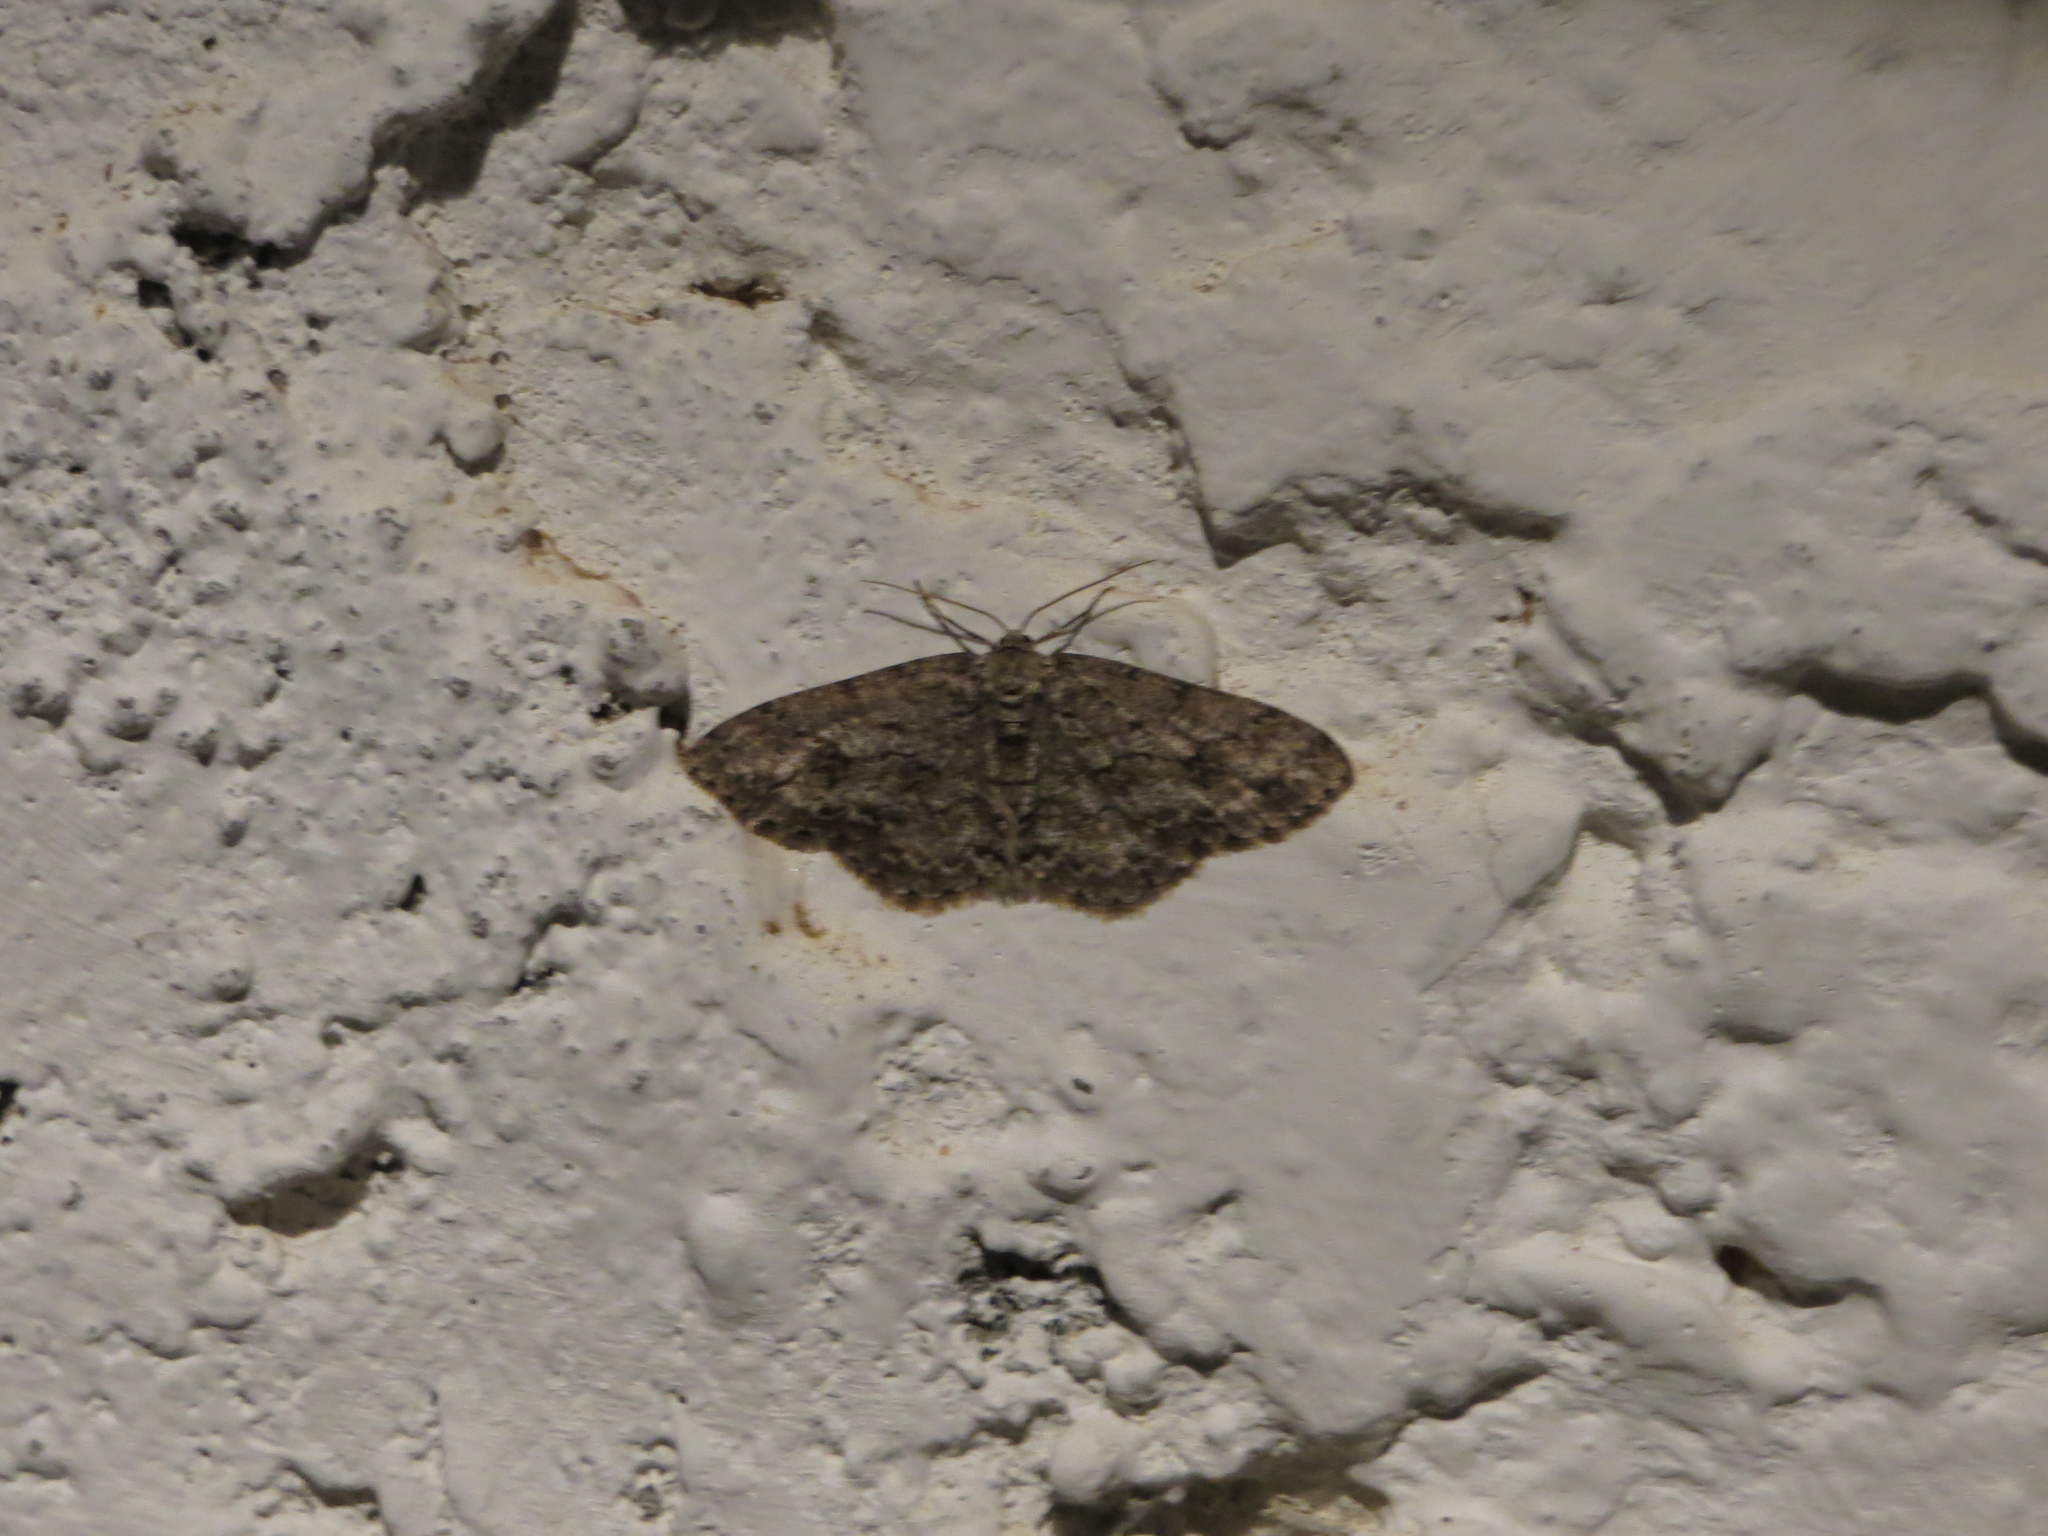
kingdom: Animalia
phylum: Arthropoda
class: Insecta
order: Lepidoptera
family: Geometridae
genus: Ectropis
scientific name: Ectropis crepuscularia
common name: Engrailed
